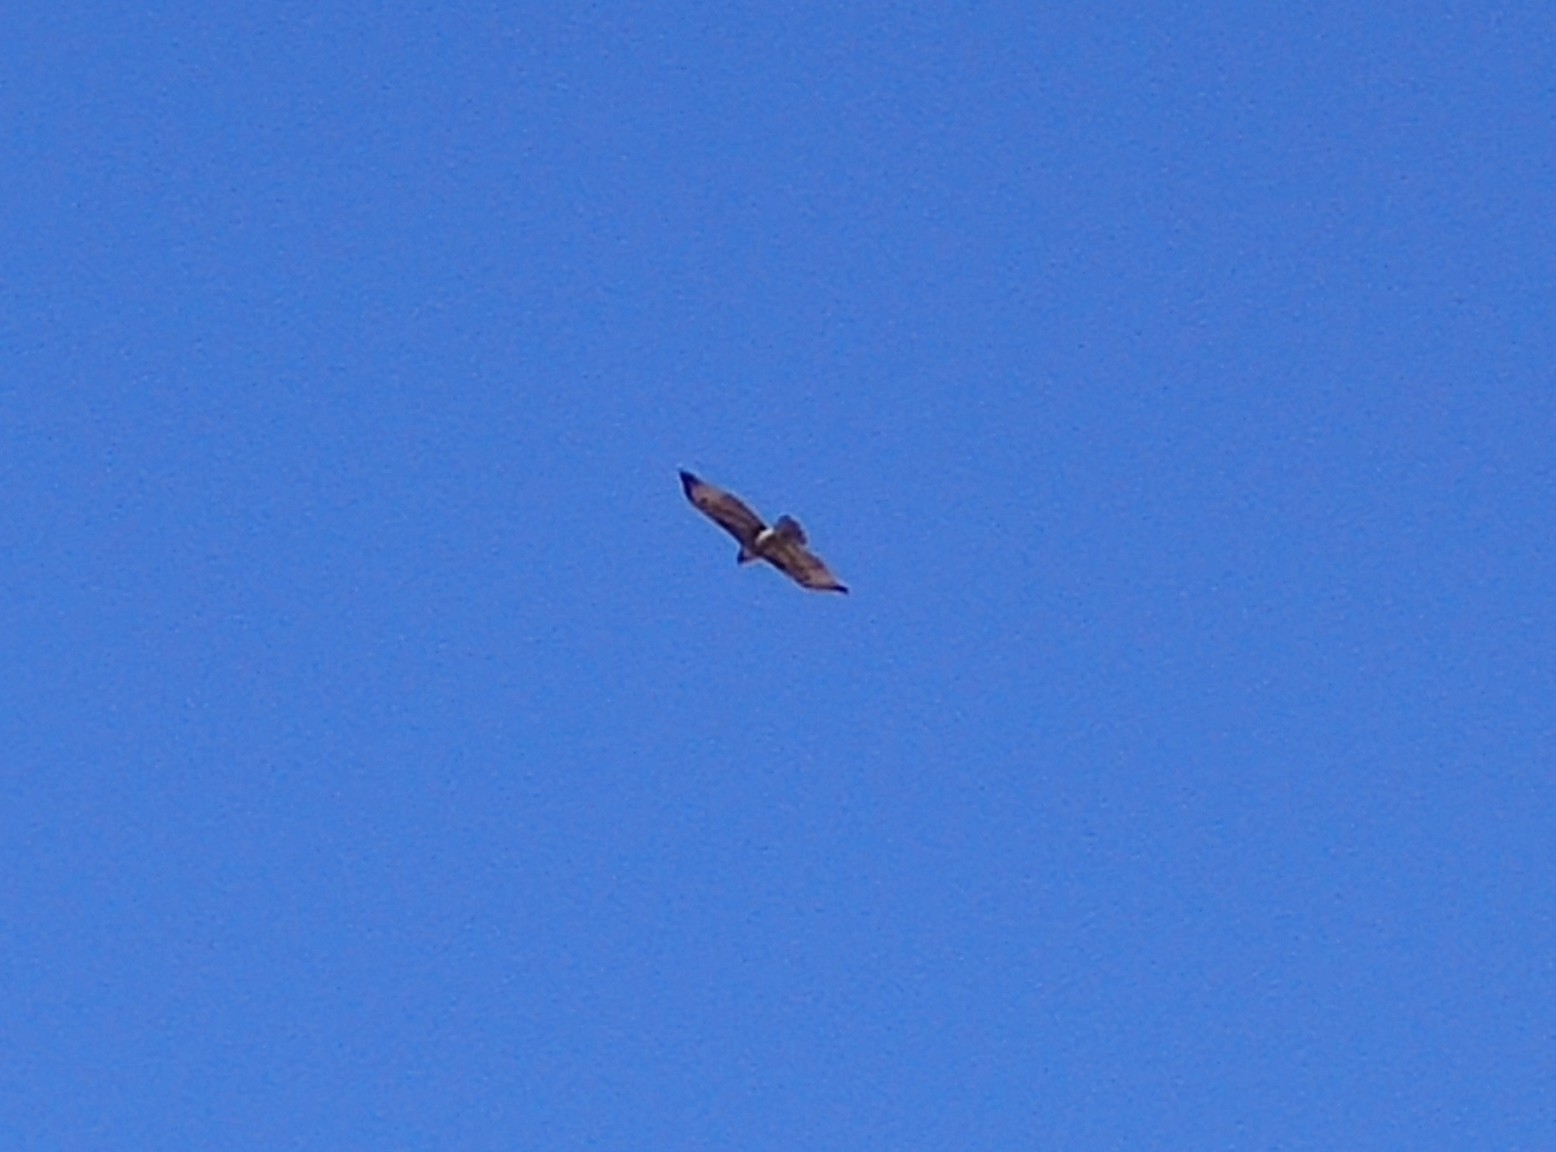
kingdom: Animalia
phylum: Chordata
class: Aves
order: Accipitriformes
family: Accipitridae
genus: Buteo
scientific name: Buteo jamaicensis
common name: Red-tailed hawk
